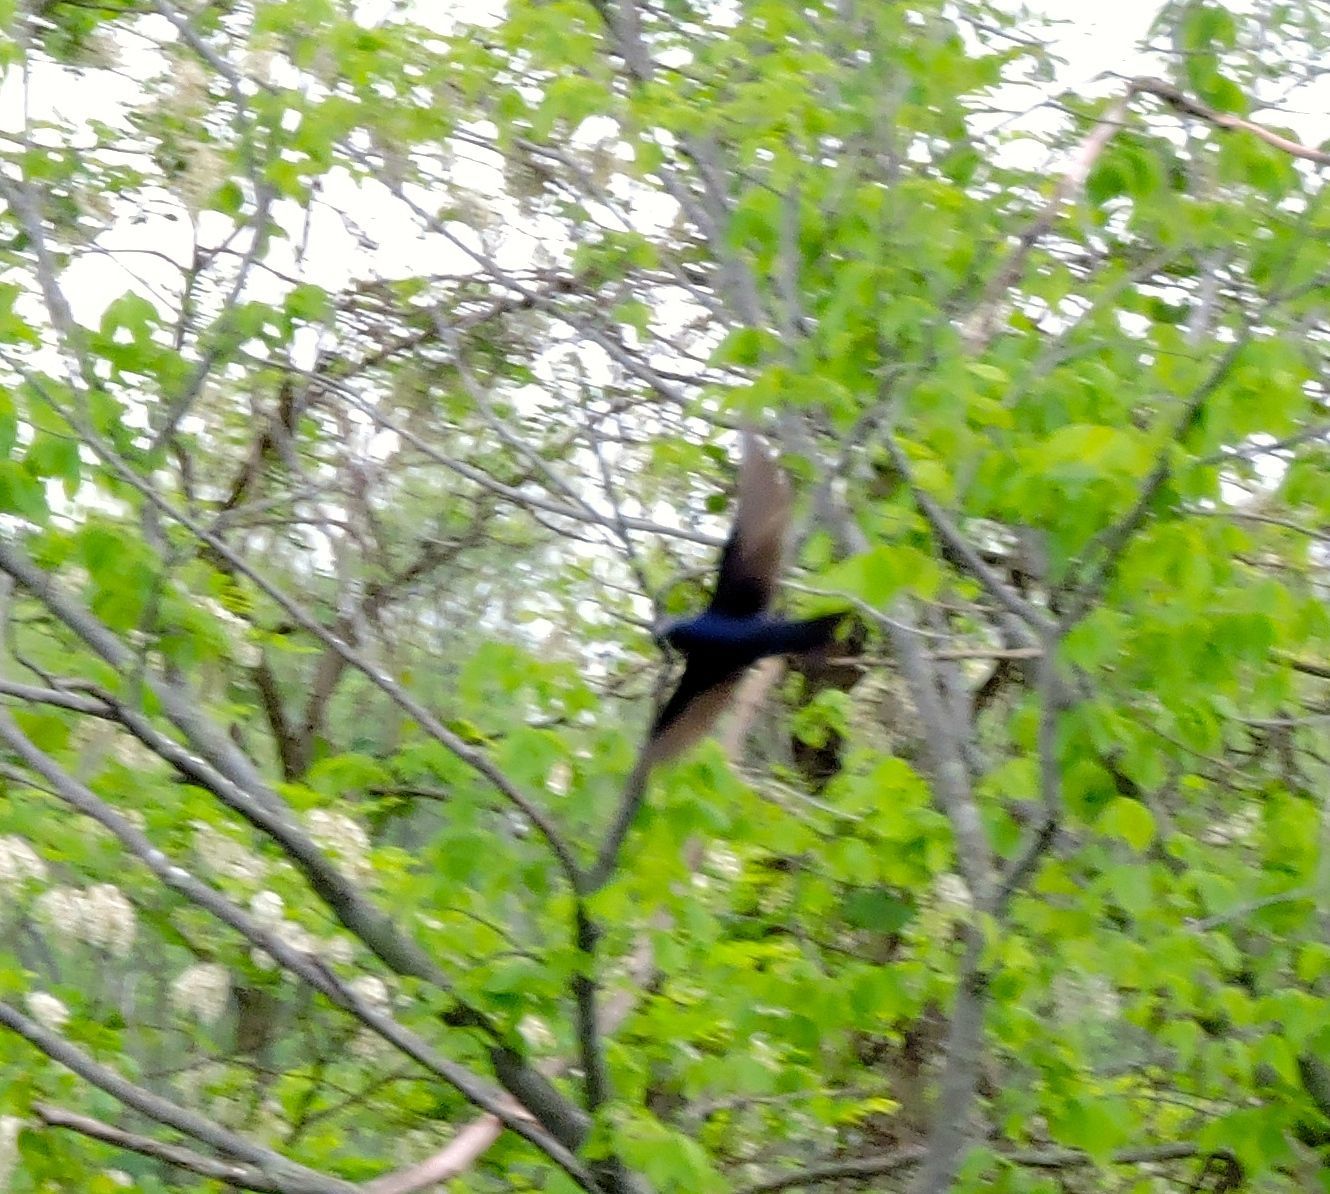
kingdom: Animalia
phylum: Chordata
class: Aves
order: Passeriformes
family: Hirundinidae
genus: Progne
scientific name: Progne subis
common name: Purple martin
